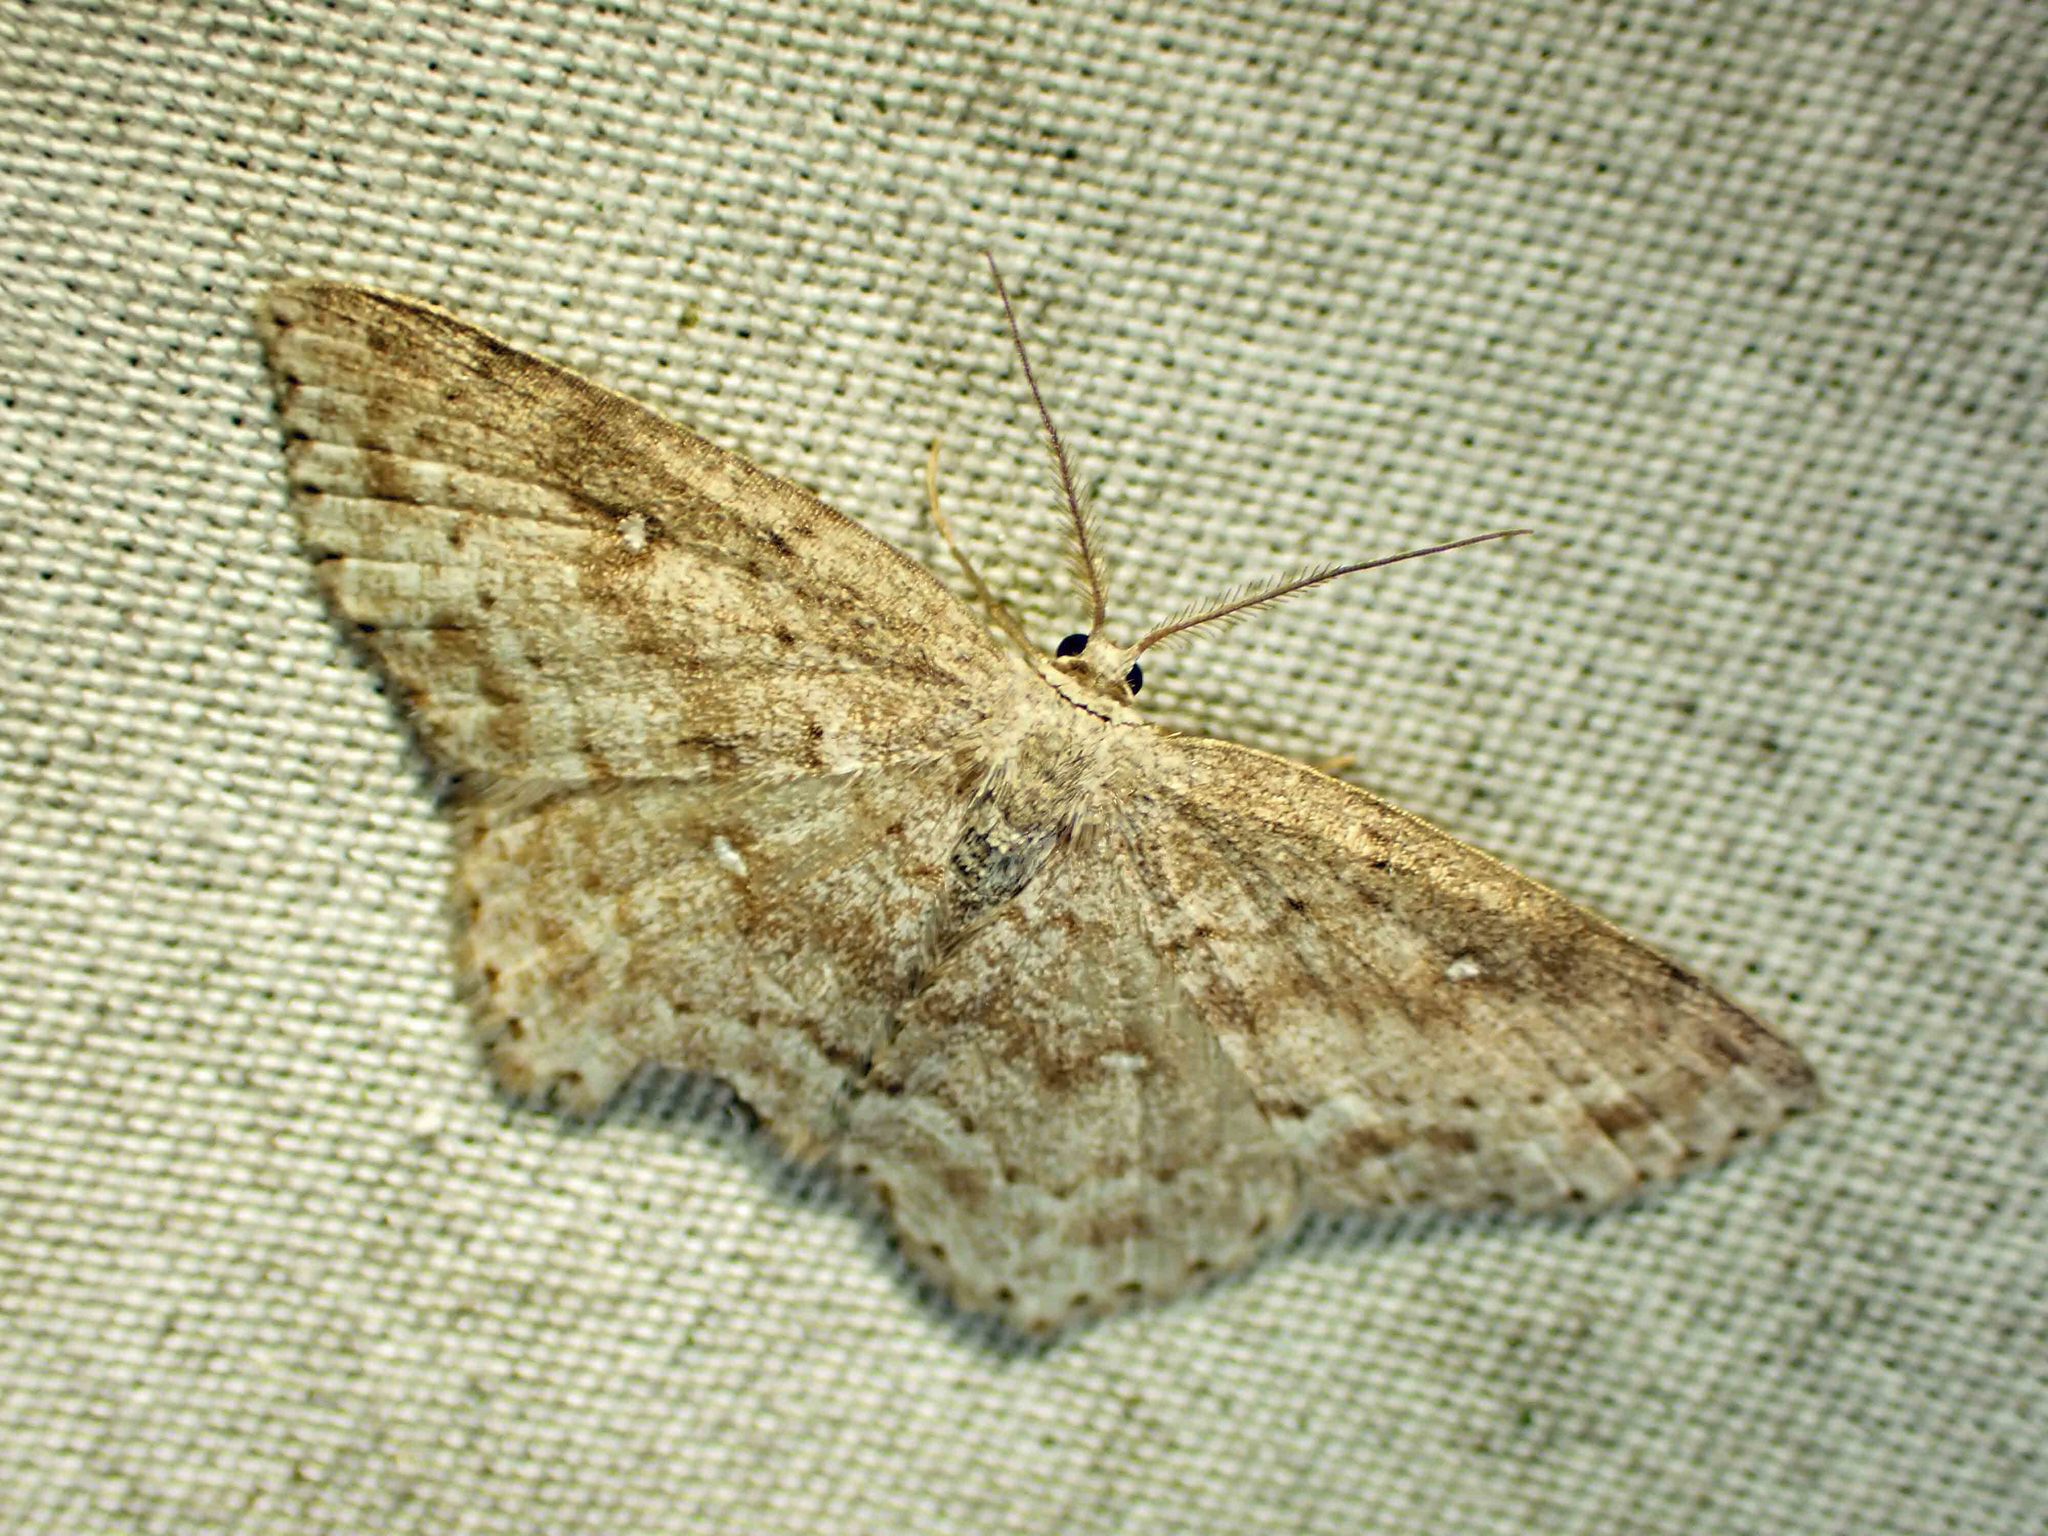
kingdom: Animalia
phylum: Arthropoda
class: Insecta
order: Lepidoptera
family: Geometridae
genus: Cyclophora
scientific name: Cyclophora pendulinaria
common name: Sweet fern geometer
